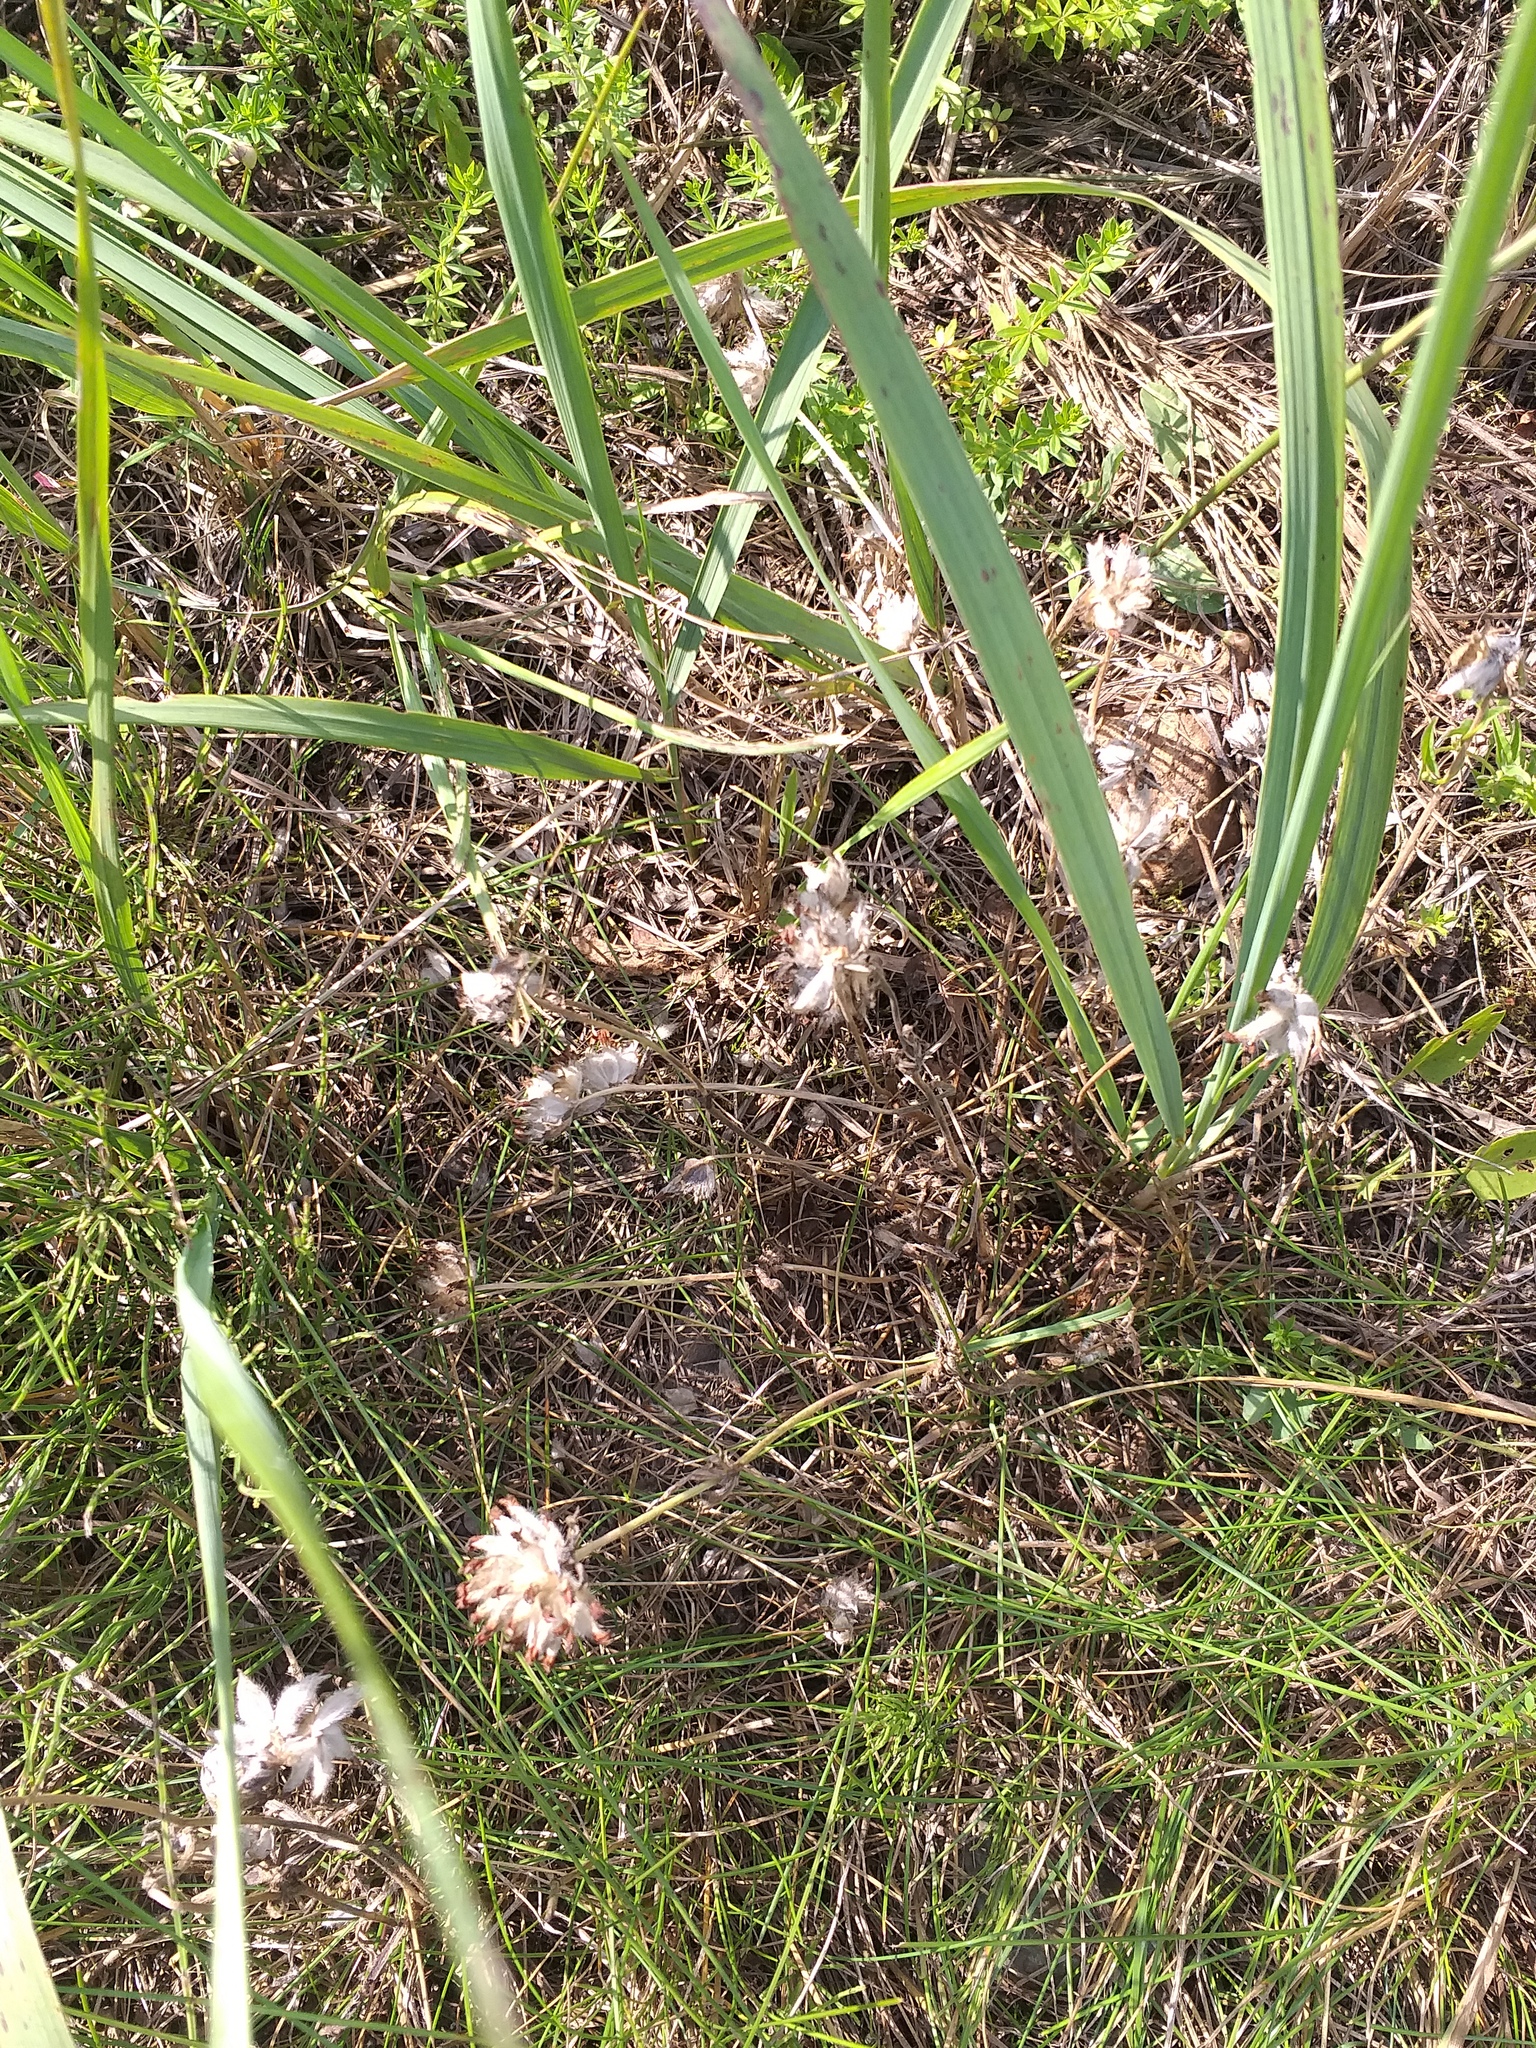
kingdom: Plantae
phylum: Tracheophyta
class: Magnoliopsida
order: Fabales
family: Fabaceae
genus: Anthyllis
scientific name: Anthyllis vulneraria
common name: Kidney vetch
